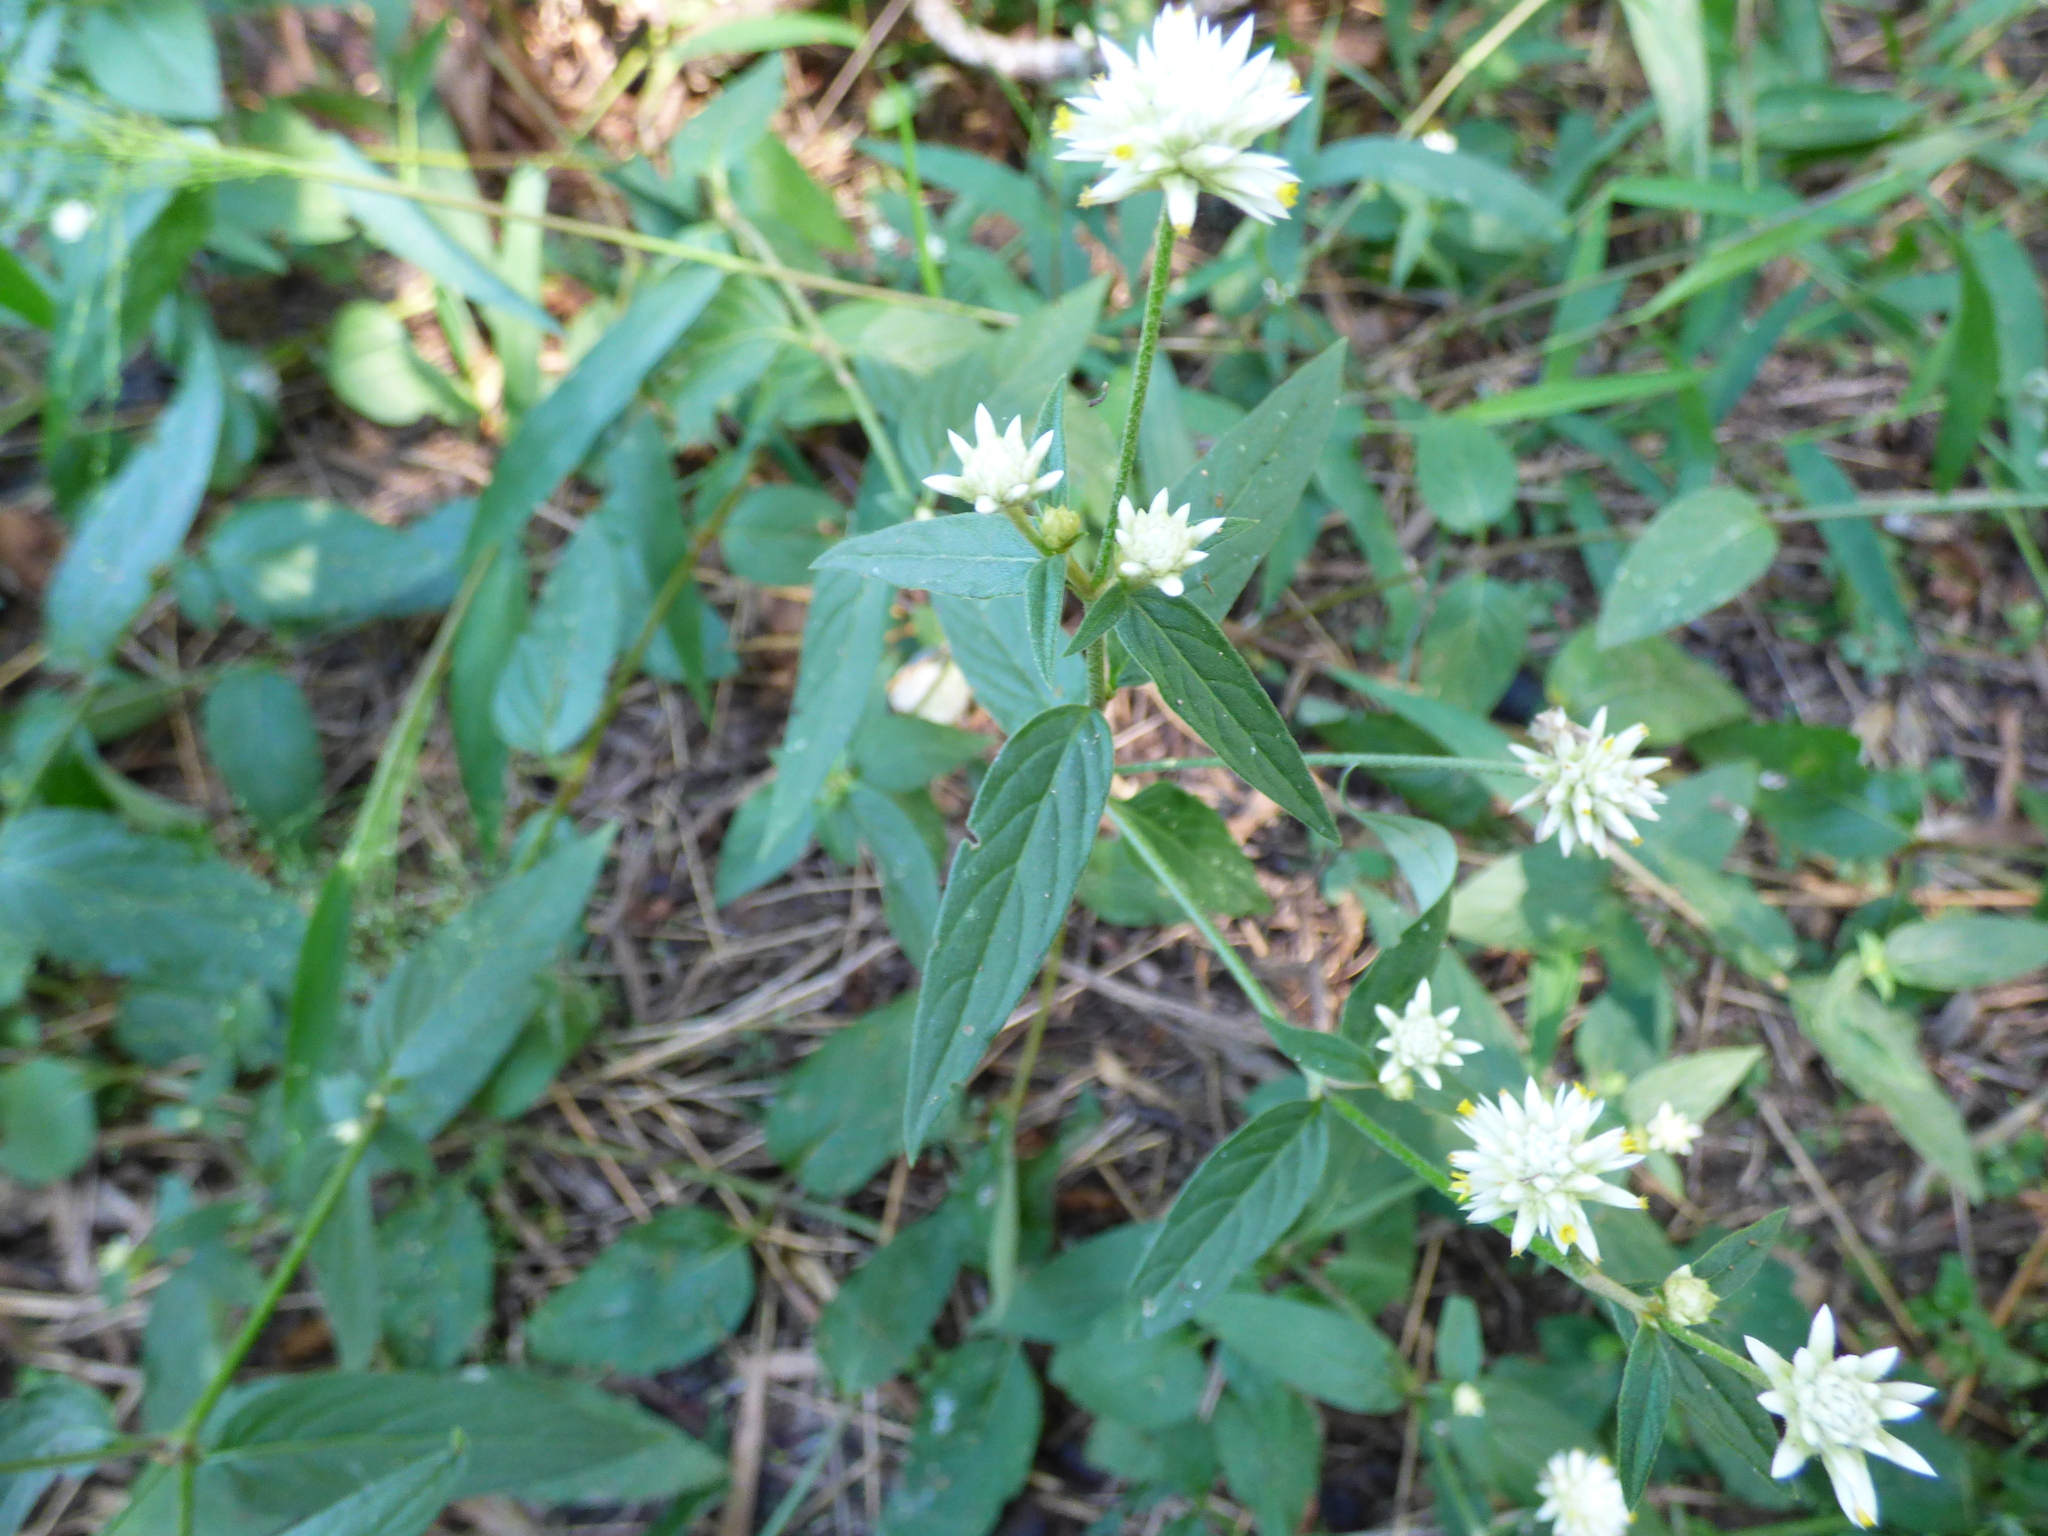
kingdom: Plantae
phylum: Tracheophyta
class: Magnoliopsida
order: Caryophyllales
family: Amaranthaceae
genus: Gomphrena
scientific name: Gomphrena elegans
